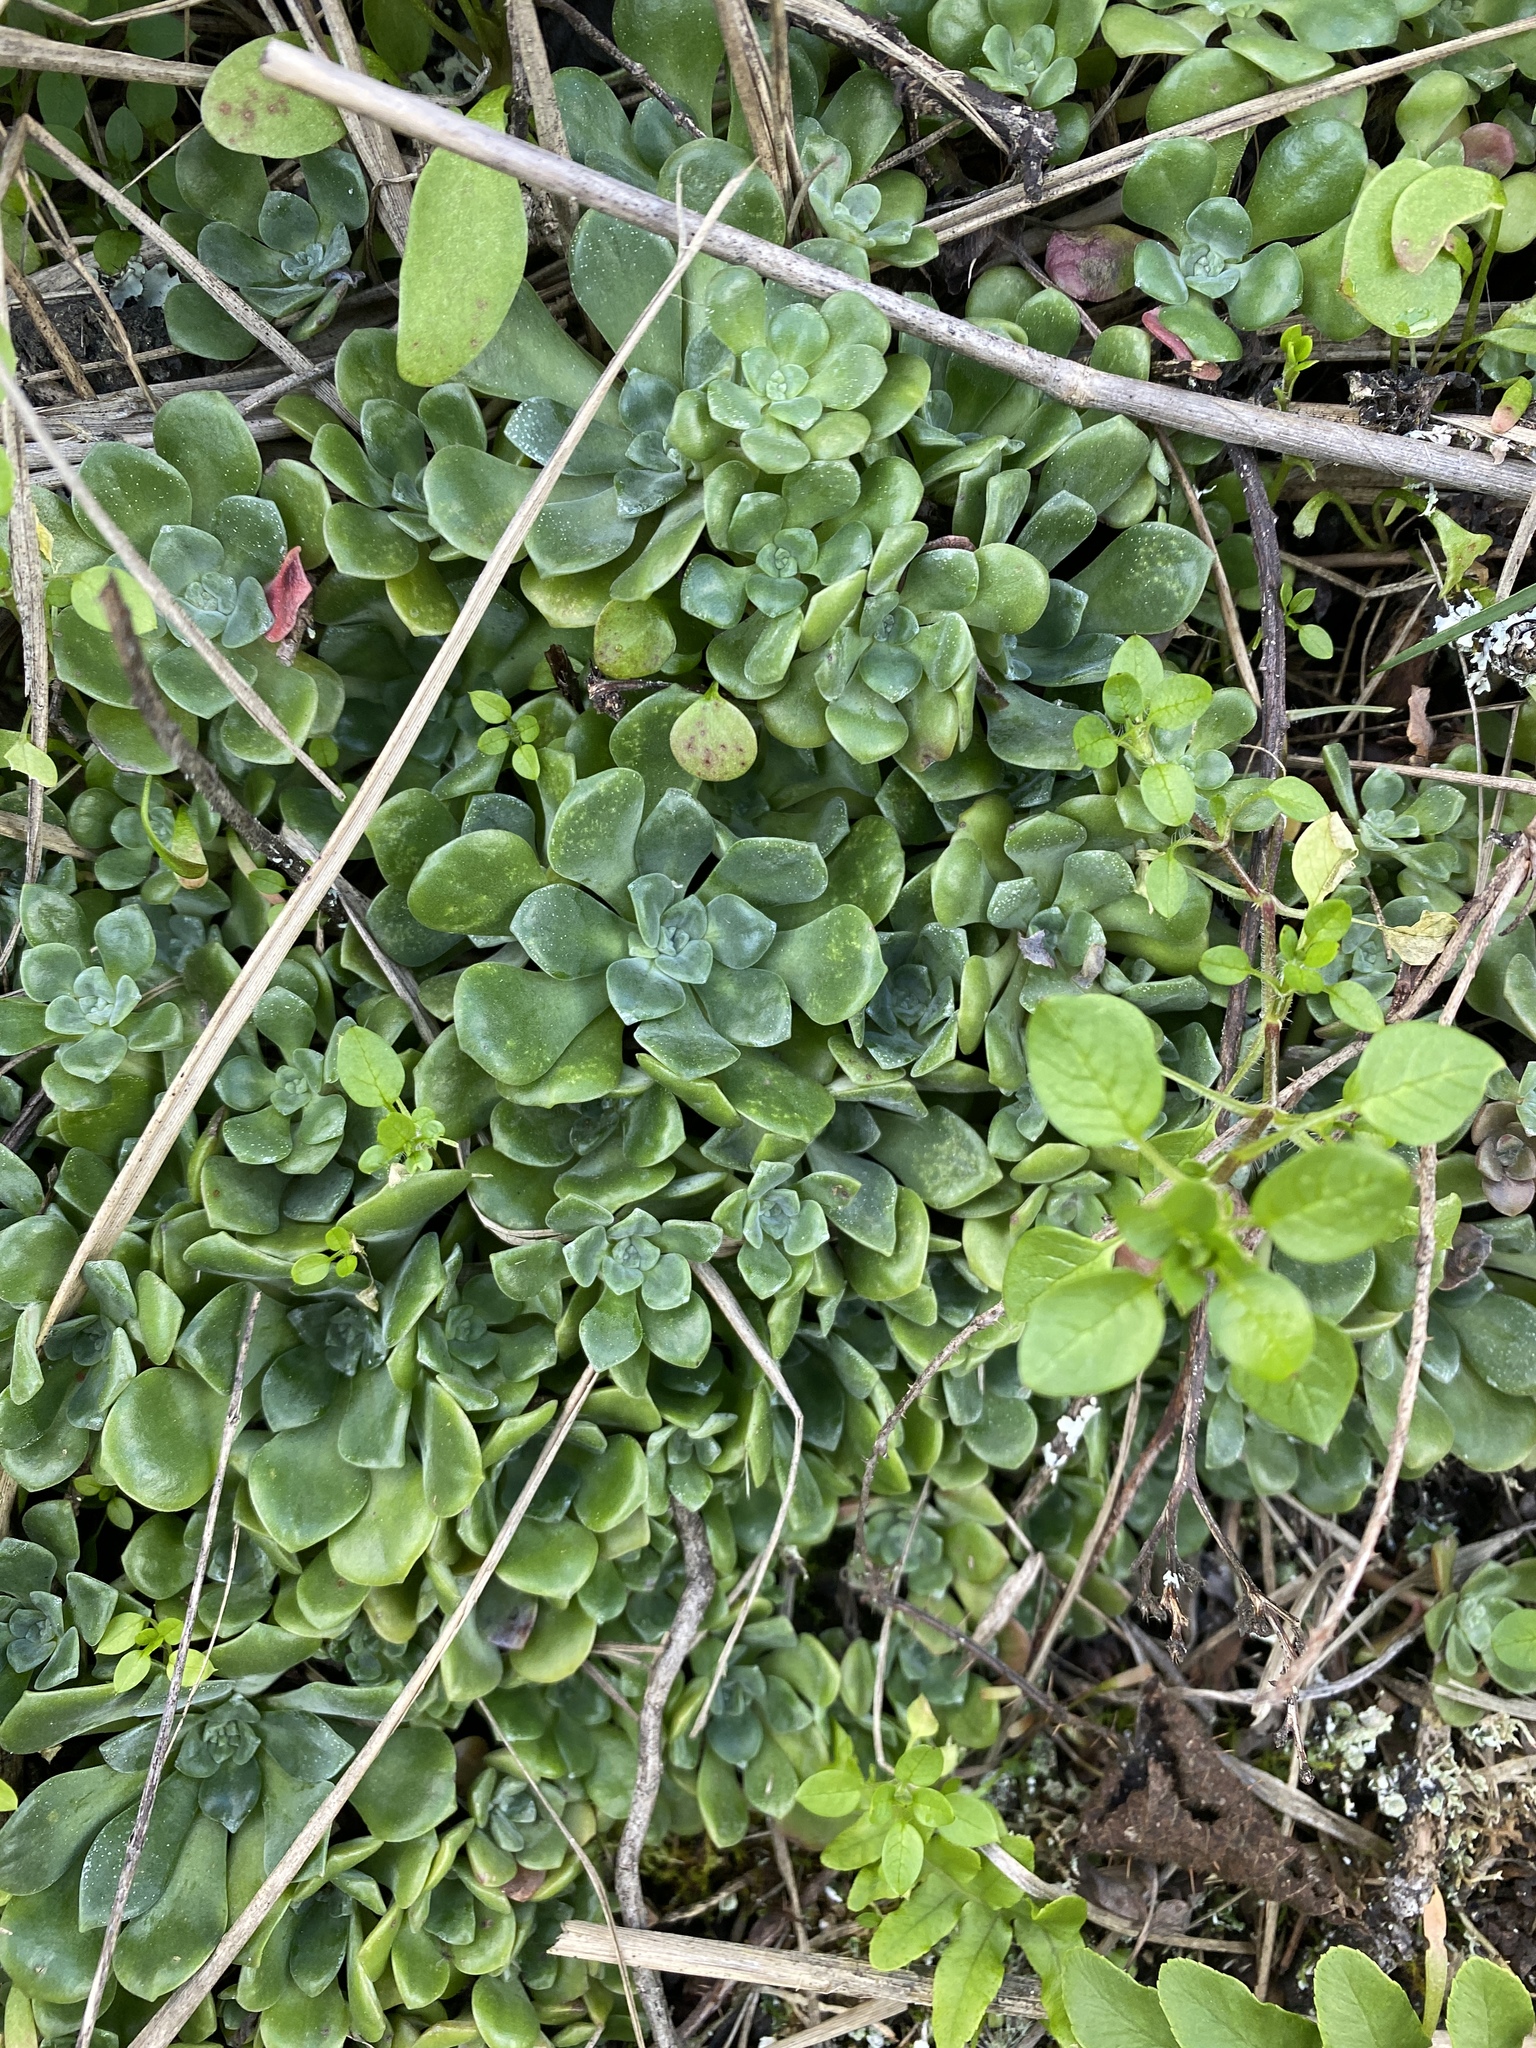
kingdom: Plantae
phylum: Tracheophyta
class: Magnoliopsida
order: Saxifragales
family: Crassulaceae
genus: Sedum
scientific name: Sedum spathulifolium
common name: Colorado stonecrop
